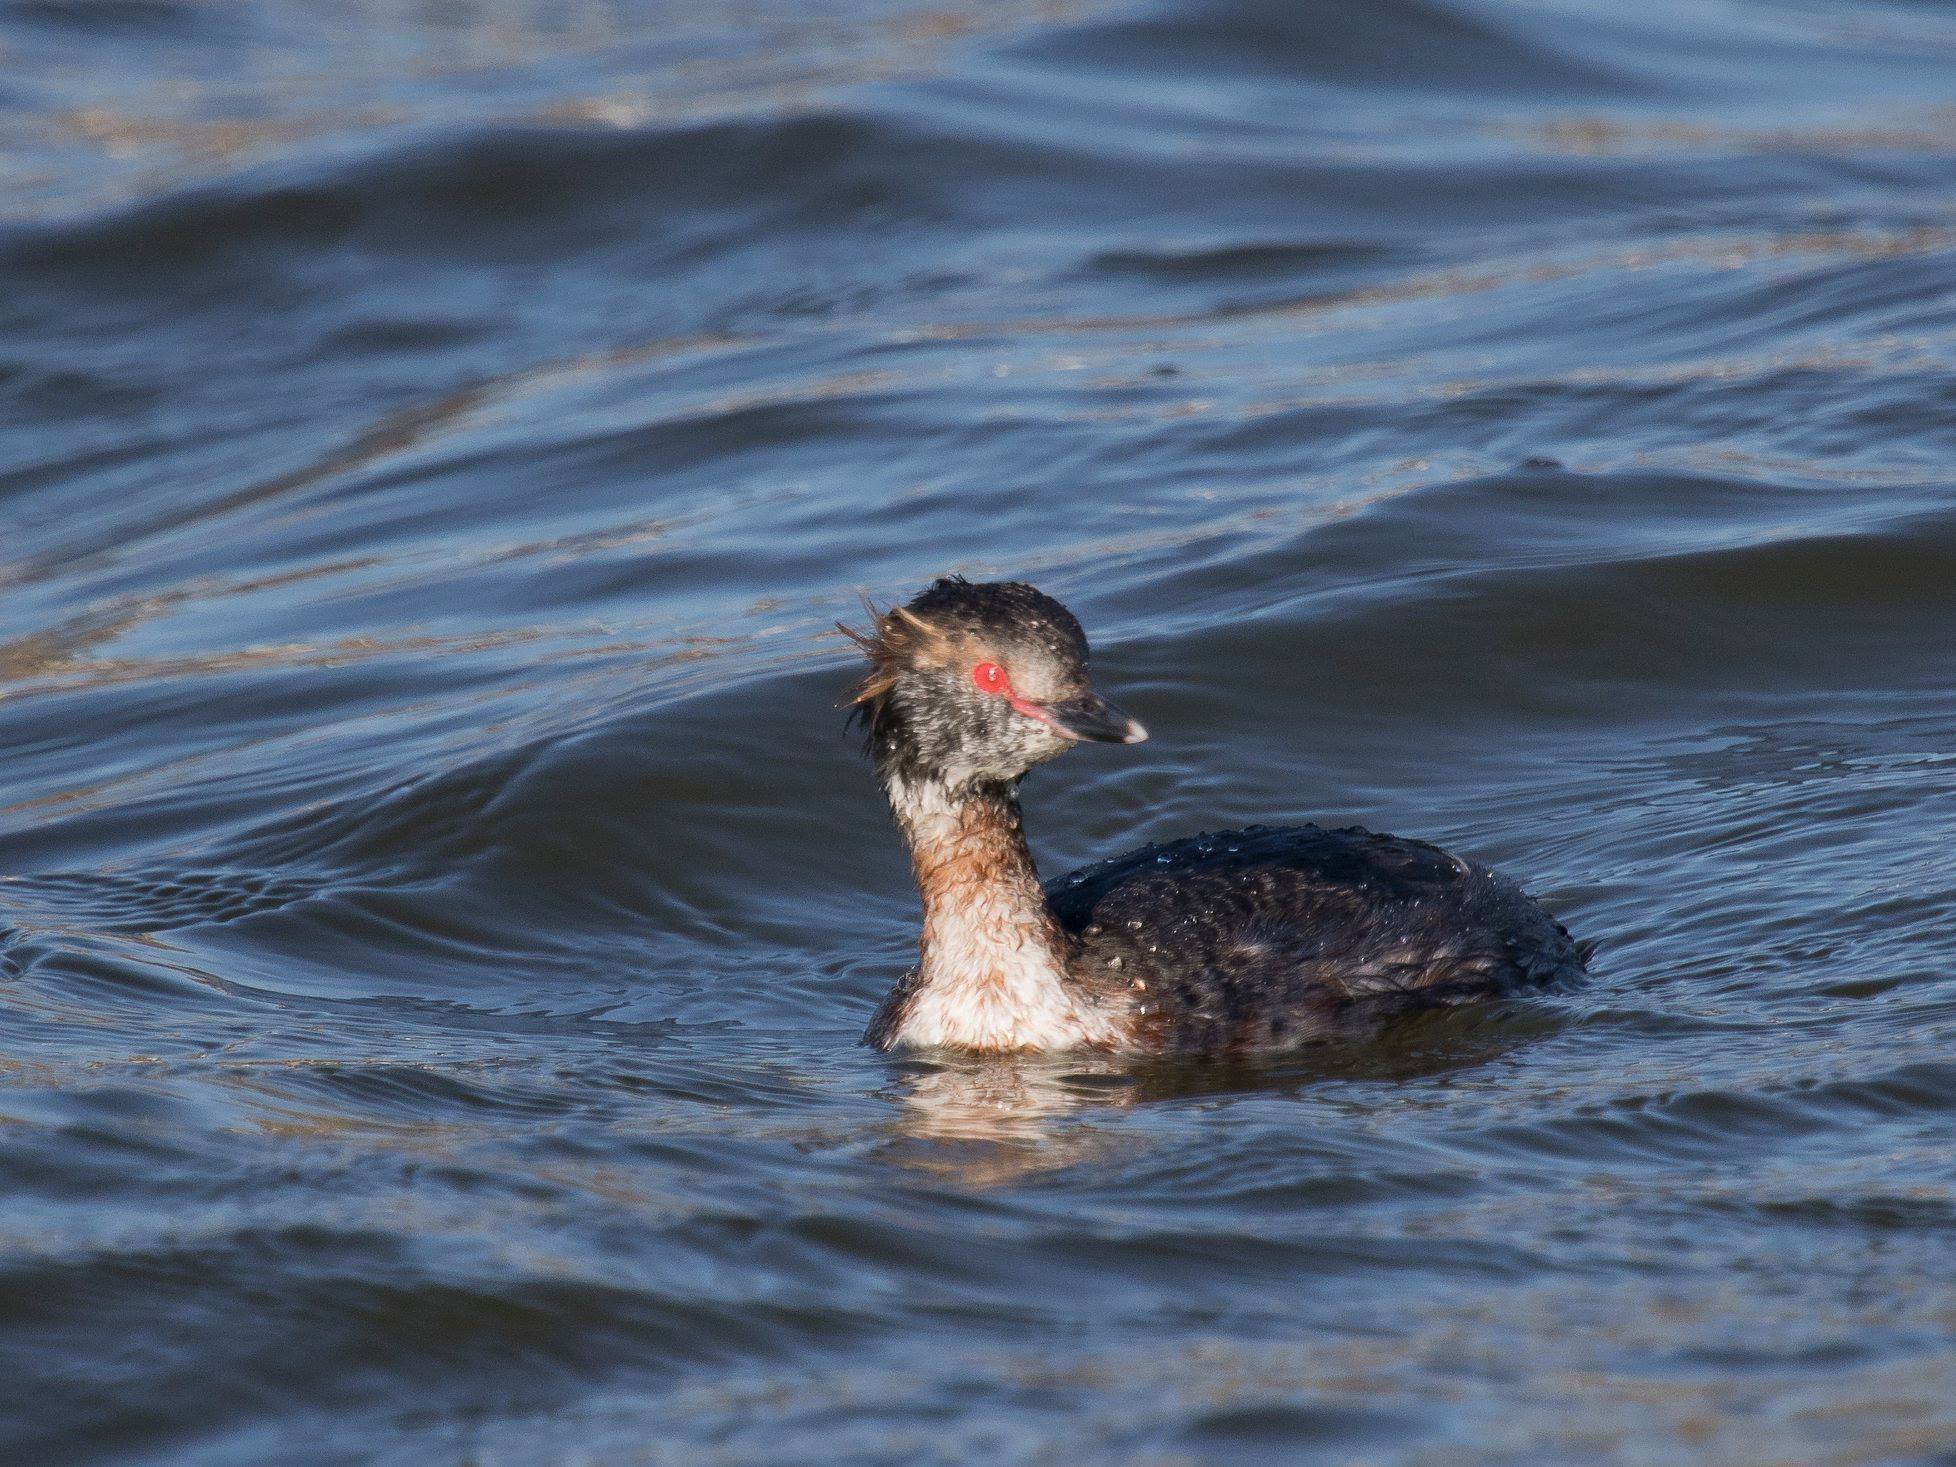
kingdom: Animalia
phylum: Chordata
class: Aves
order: Podicipediformes
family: Podicipedidae
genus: Podiceps
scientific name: Podiceps auritus
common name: Horned grebe
